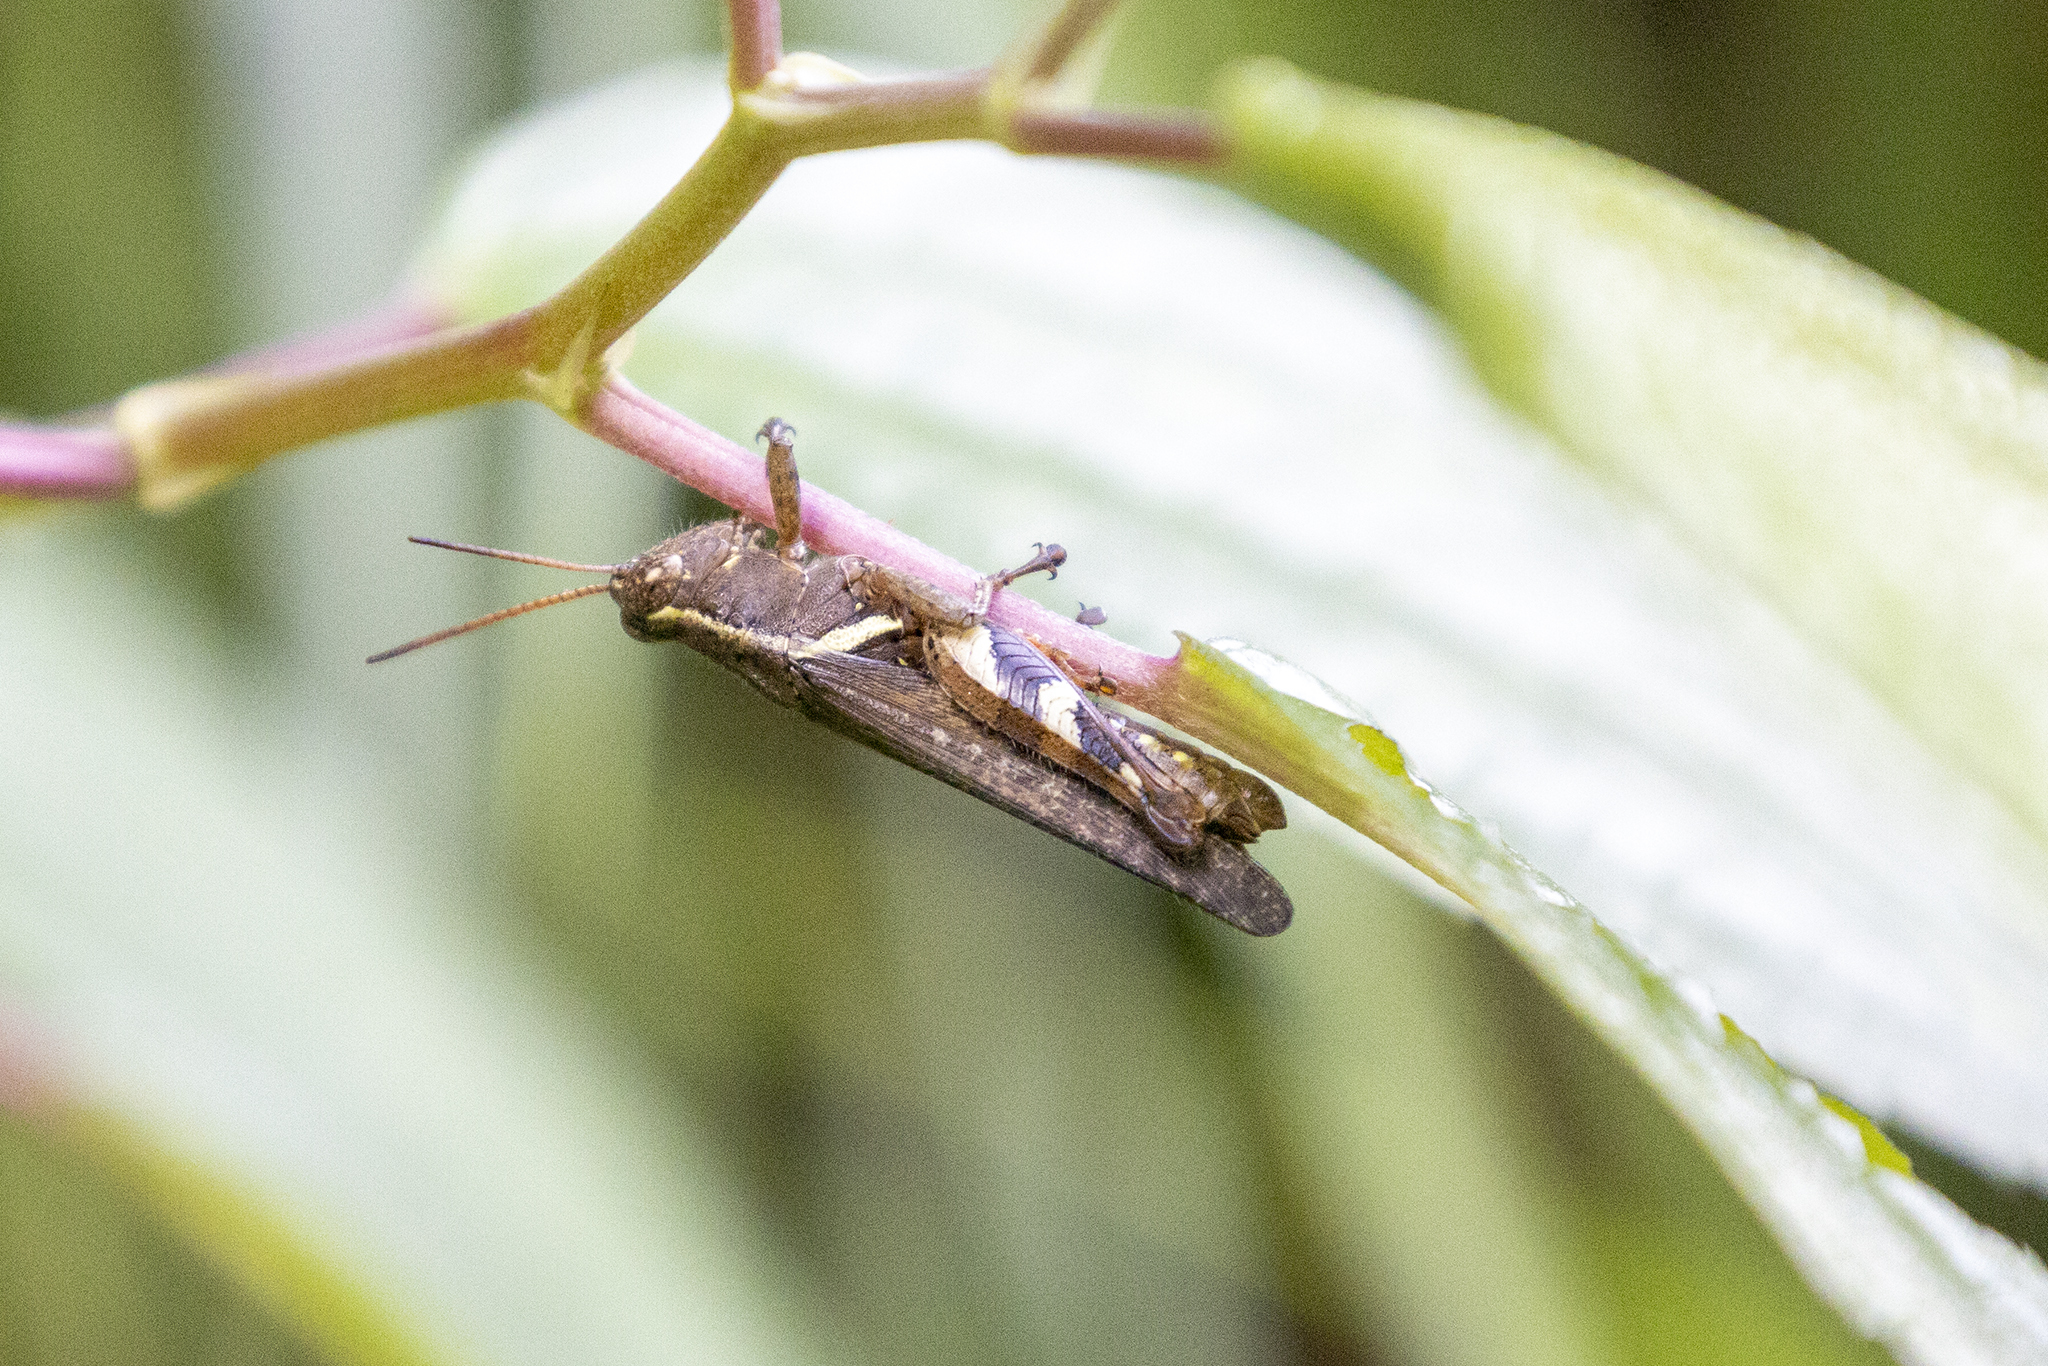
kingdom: Animalia
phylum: Arthropoda
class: Insecta
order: Orthoptera
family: Acrididae
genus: Xenocatantops
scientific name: Xenocatantops brachycerus
